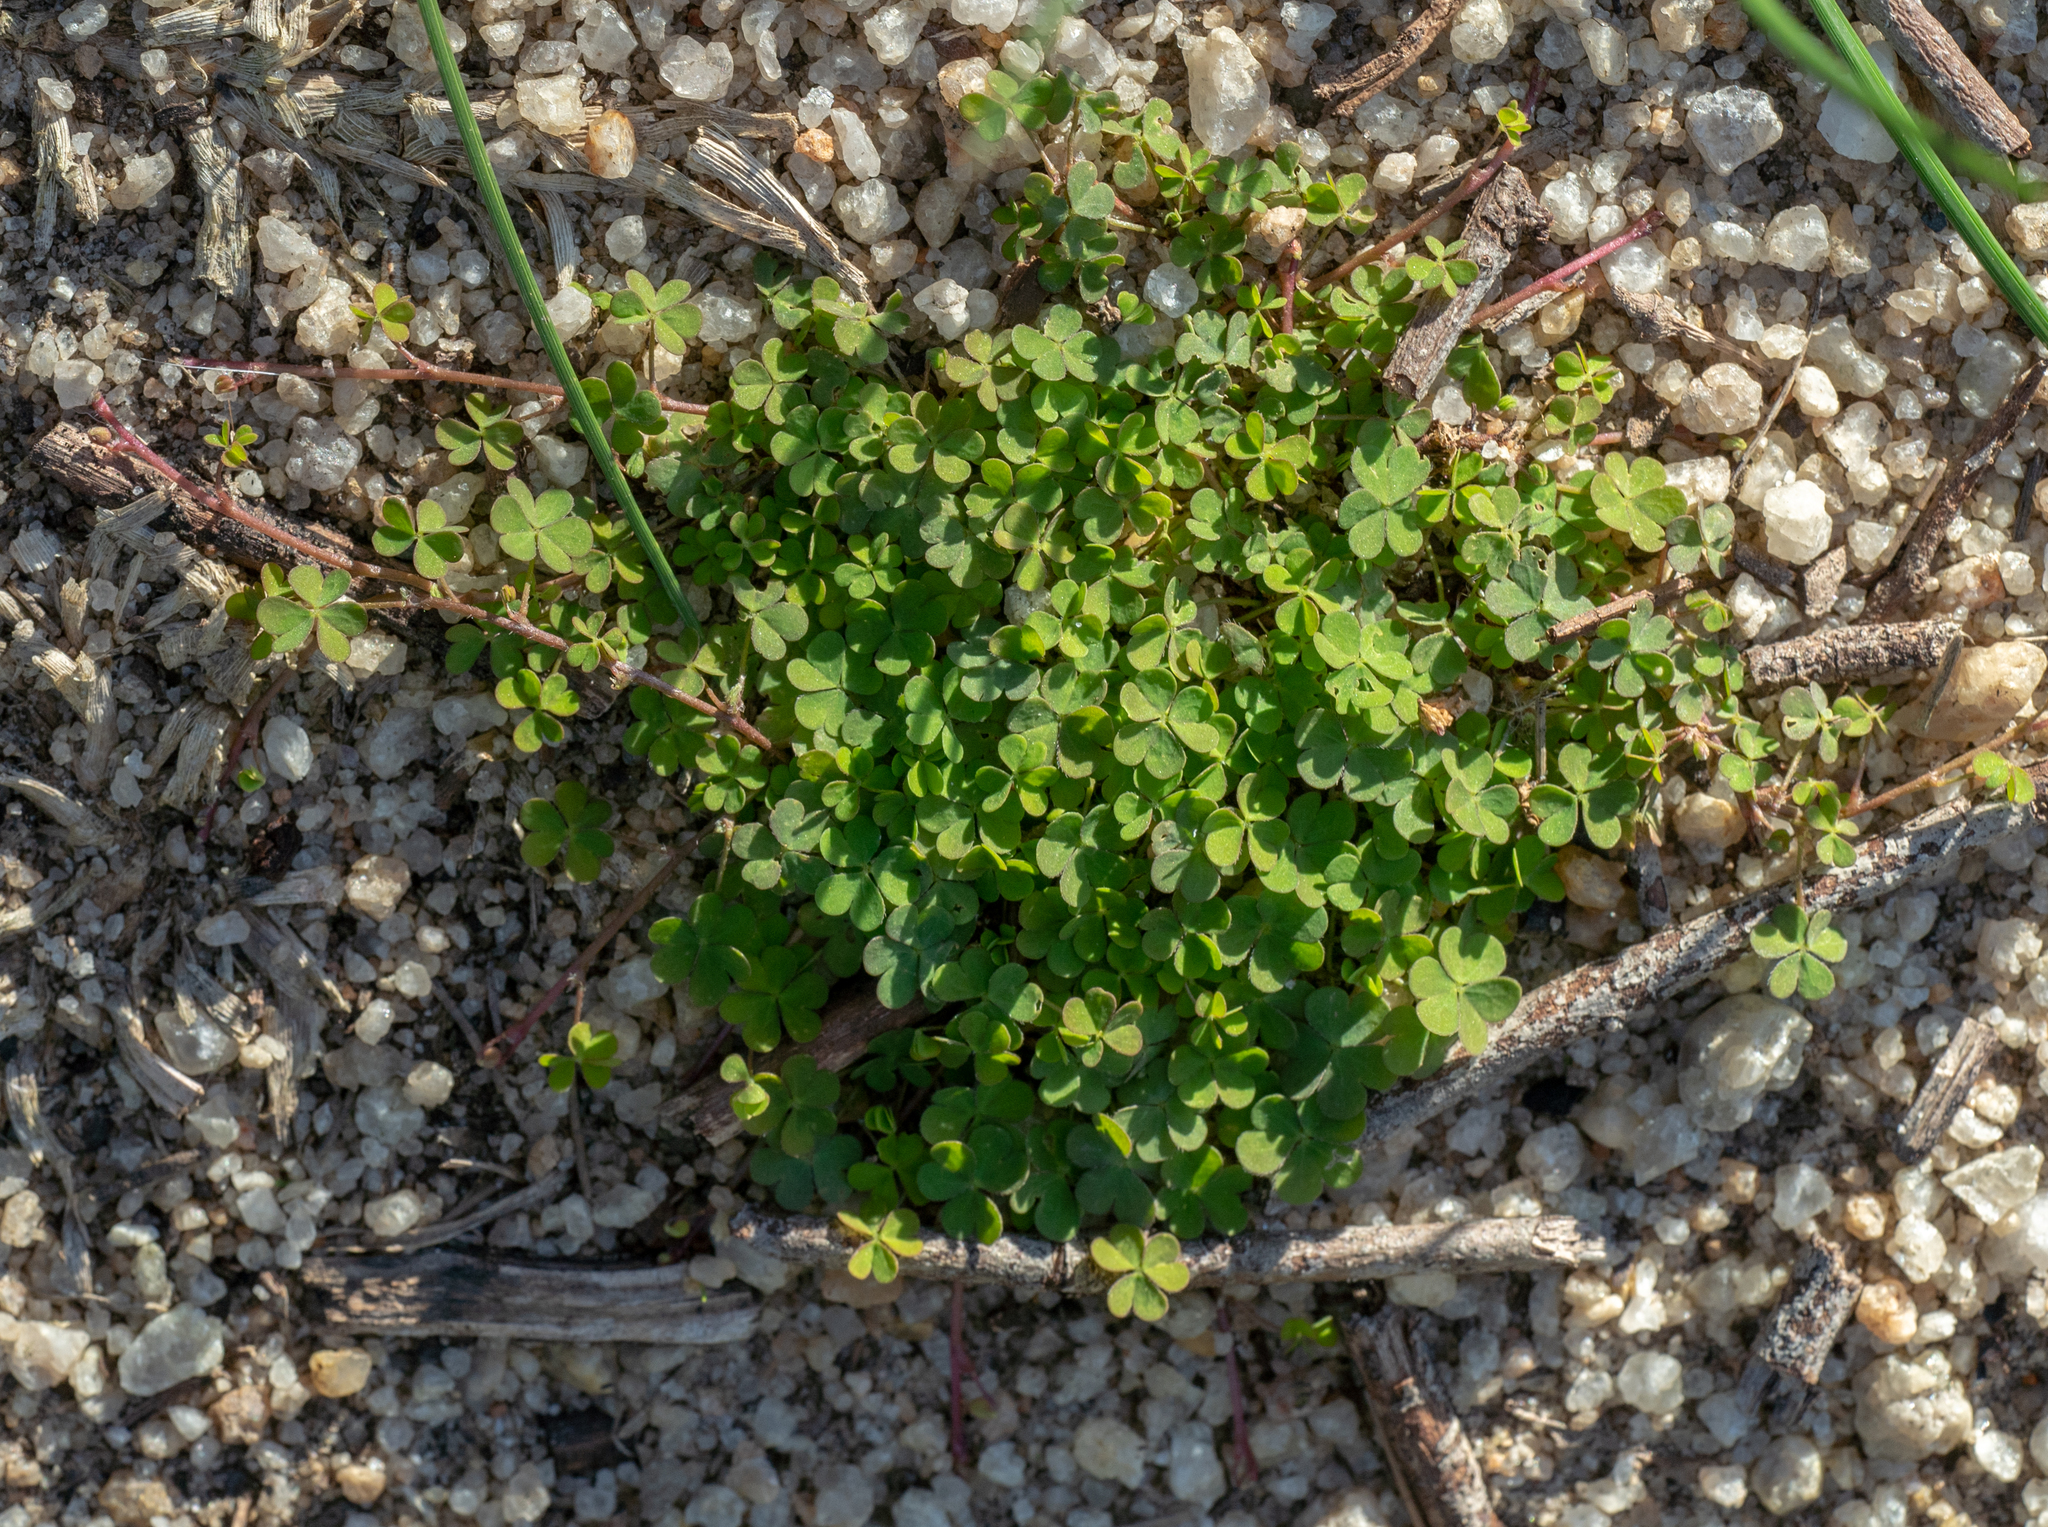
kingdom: Plantae
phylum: Tracheophyta
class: Magnoliopsida
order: Oxalidales
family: Oxalidaceae
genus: Oxalis
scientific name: Oxalis corniculata
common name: Procumbent yellow-sorrel
